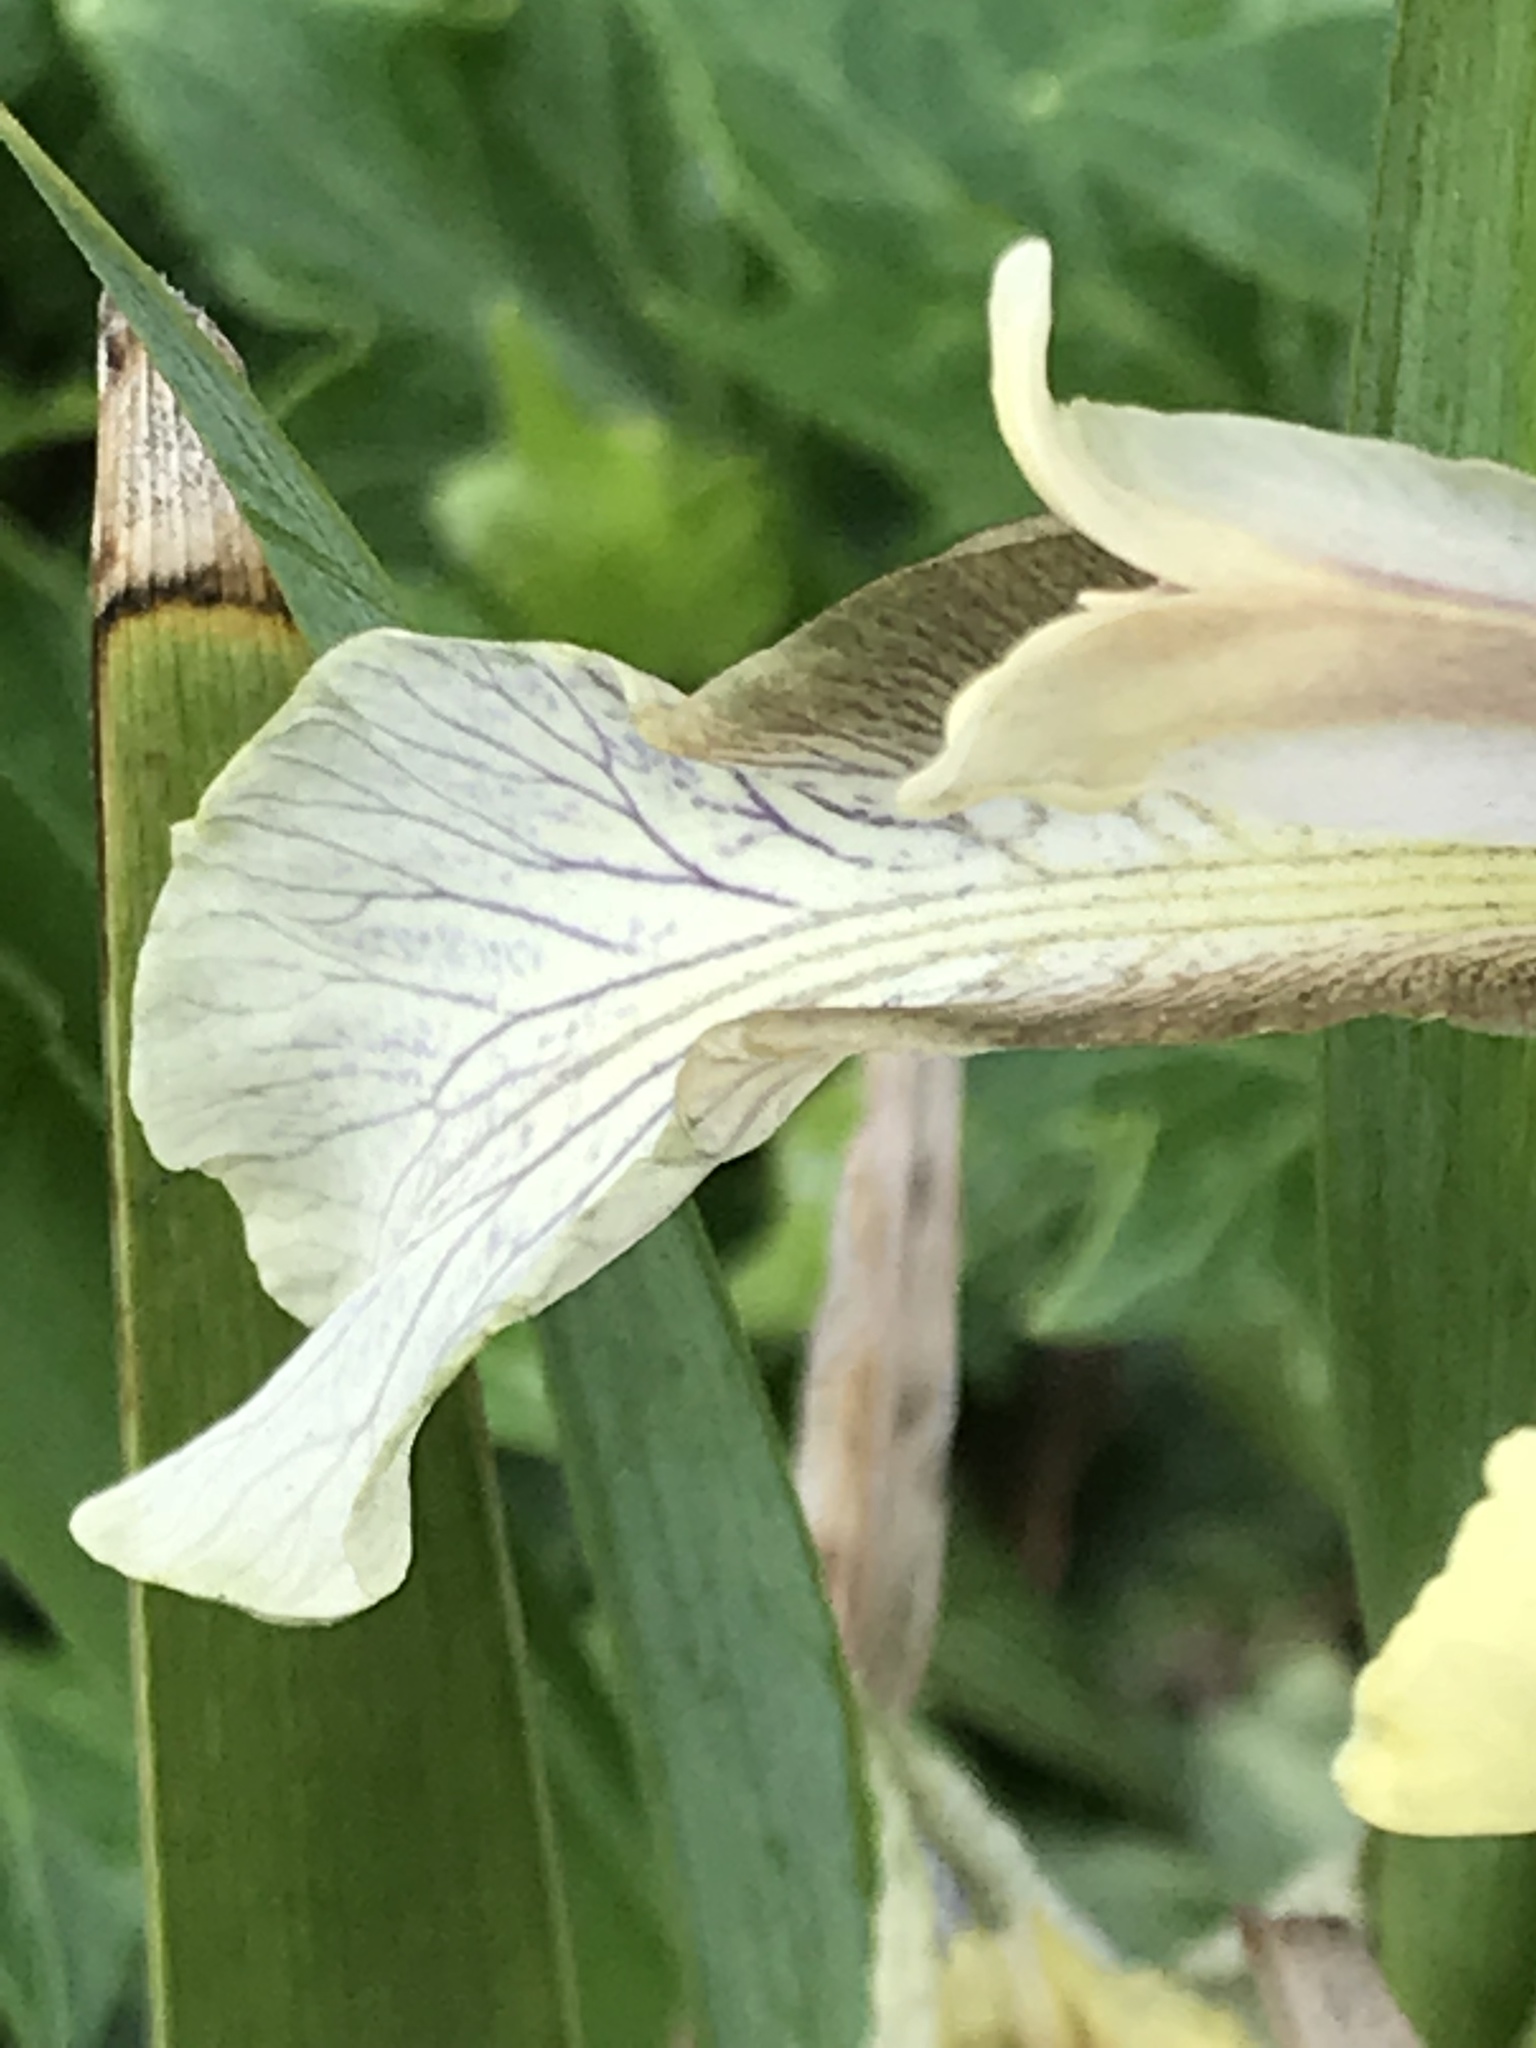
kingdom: Plantae
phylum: Tracheophyta
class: Liliopsida
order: Asparagales
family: Iridaceae
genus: Iris
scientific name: Iris foetidissima
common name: Stinking iris
